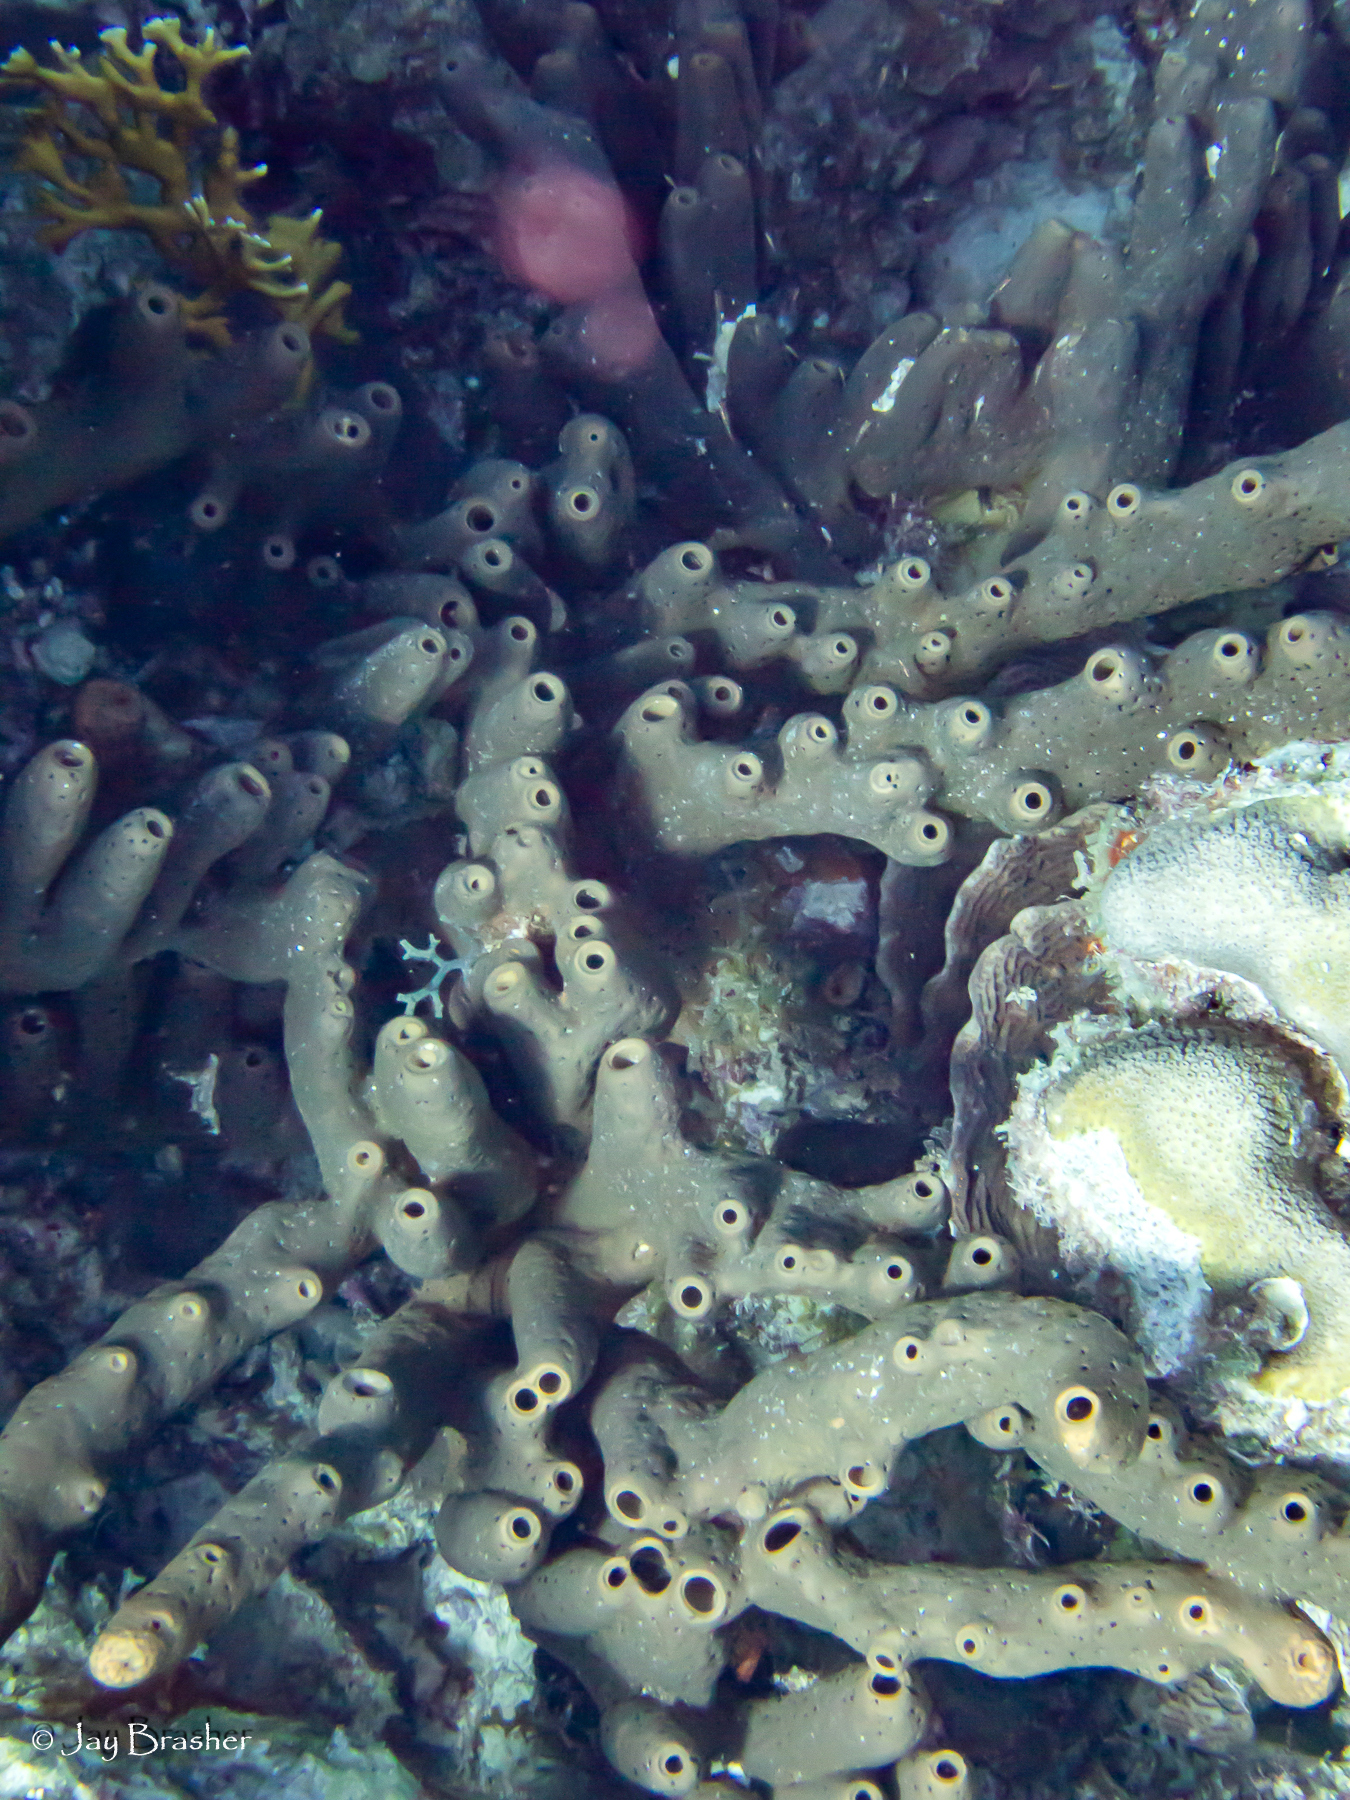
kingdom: Animalia
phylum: Porifera
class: Demospongiae
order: Agelasida
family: Agelasidae
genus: Agelas
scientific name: Agelas conifera
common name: Brown tube sponge
